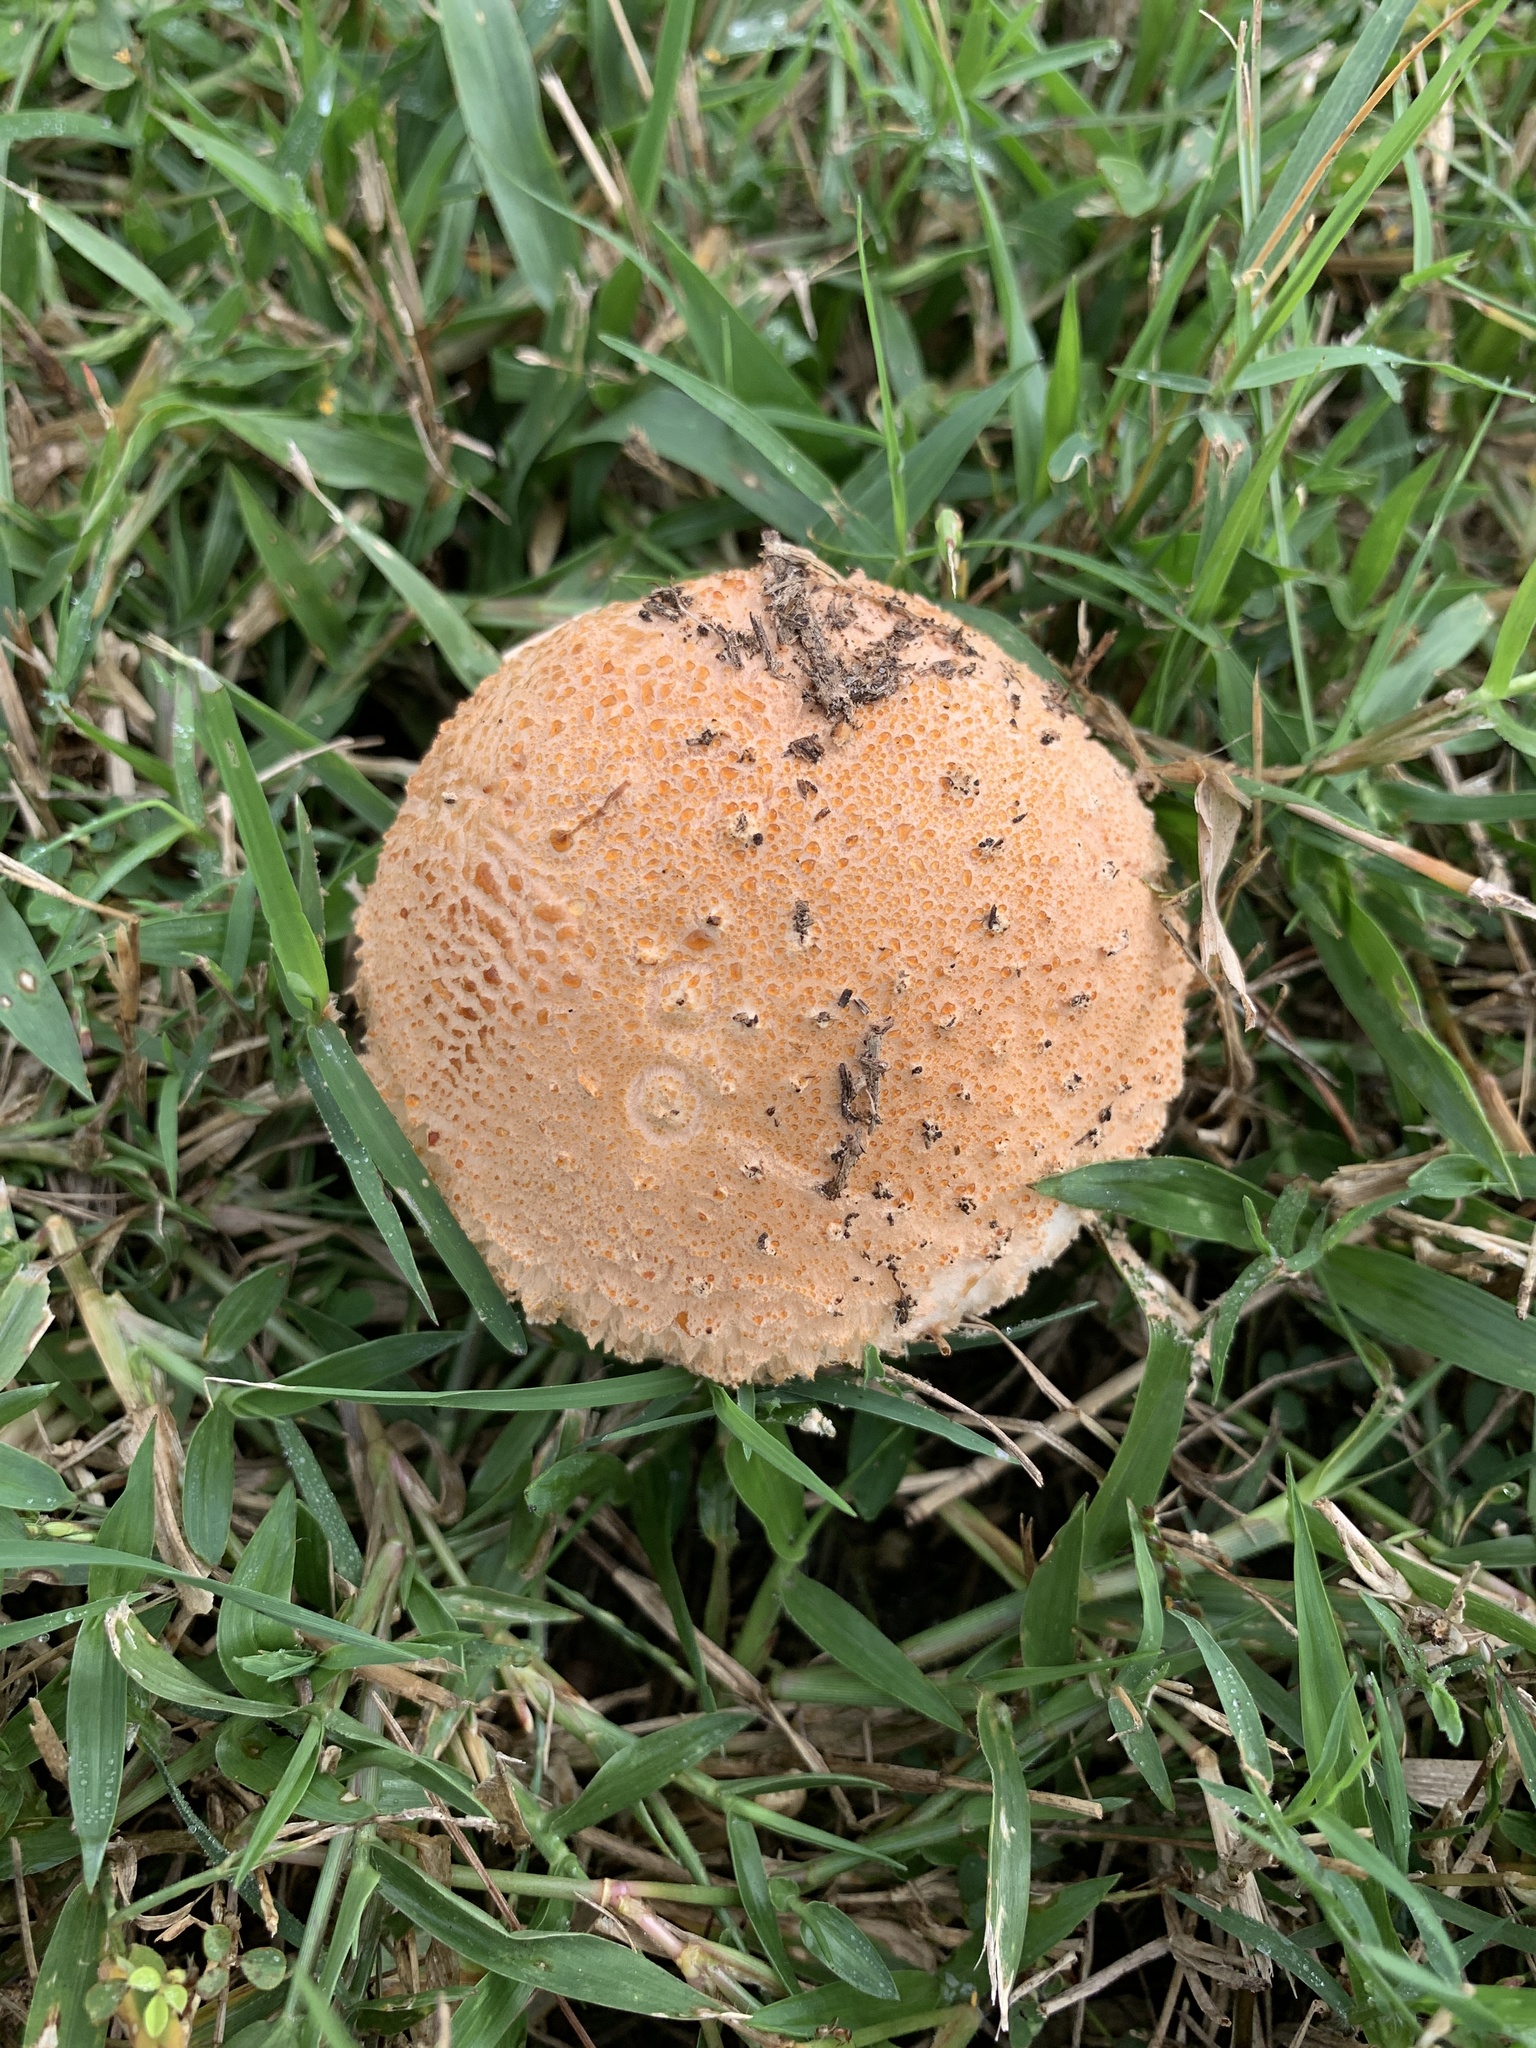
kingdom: Fungi
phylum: Basidiomycota
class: Agaricomycetes
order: Agaricales
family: Amanitaceae
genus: Amanita
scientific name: Amanita manicata
